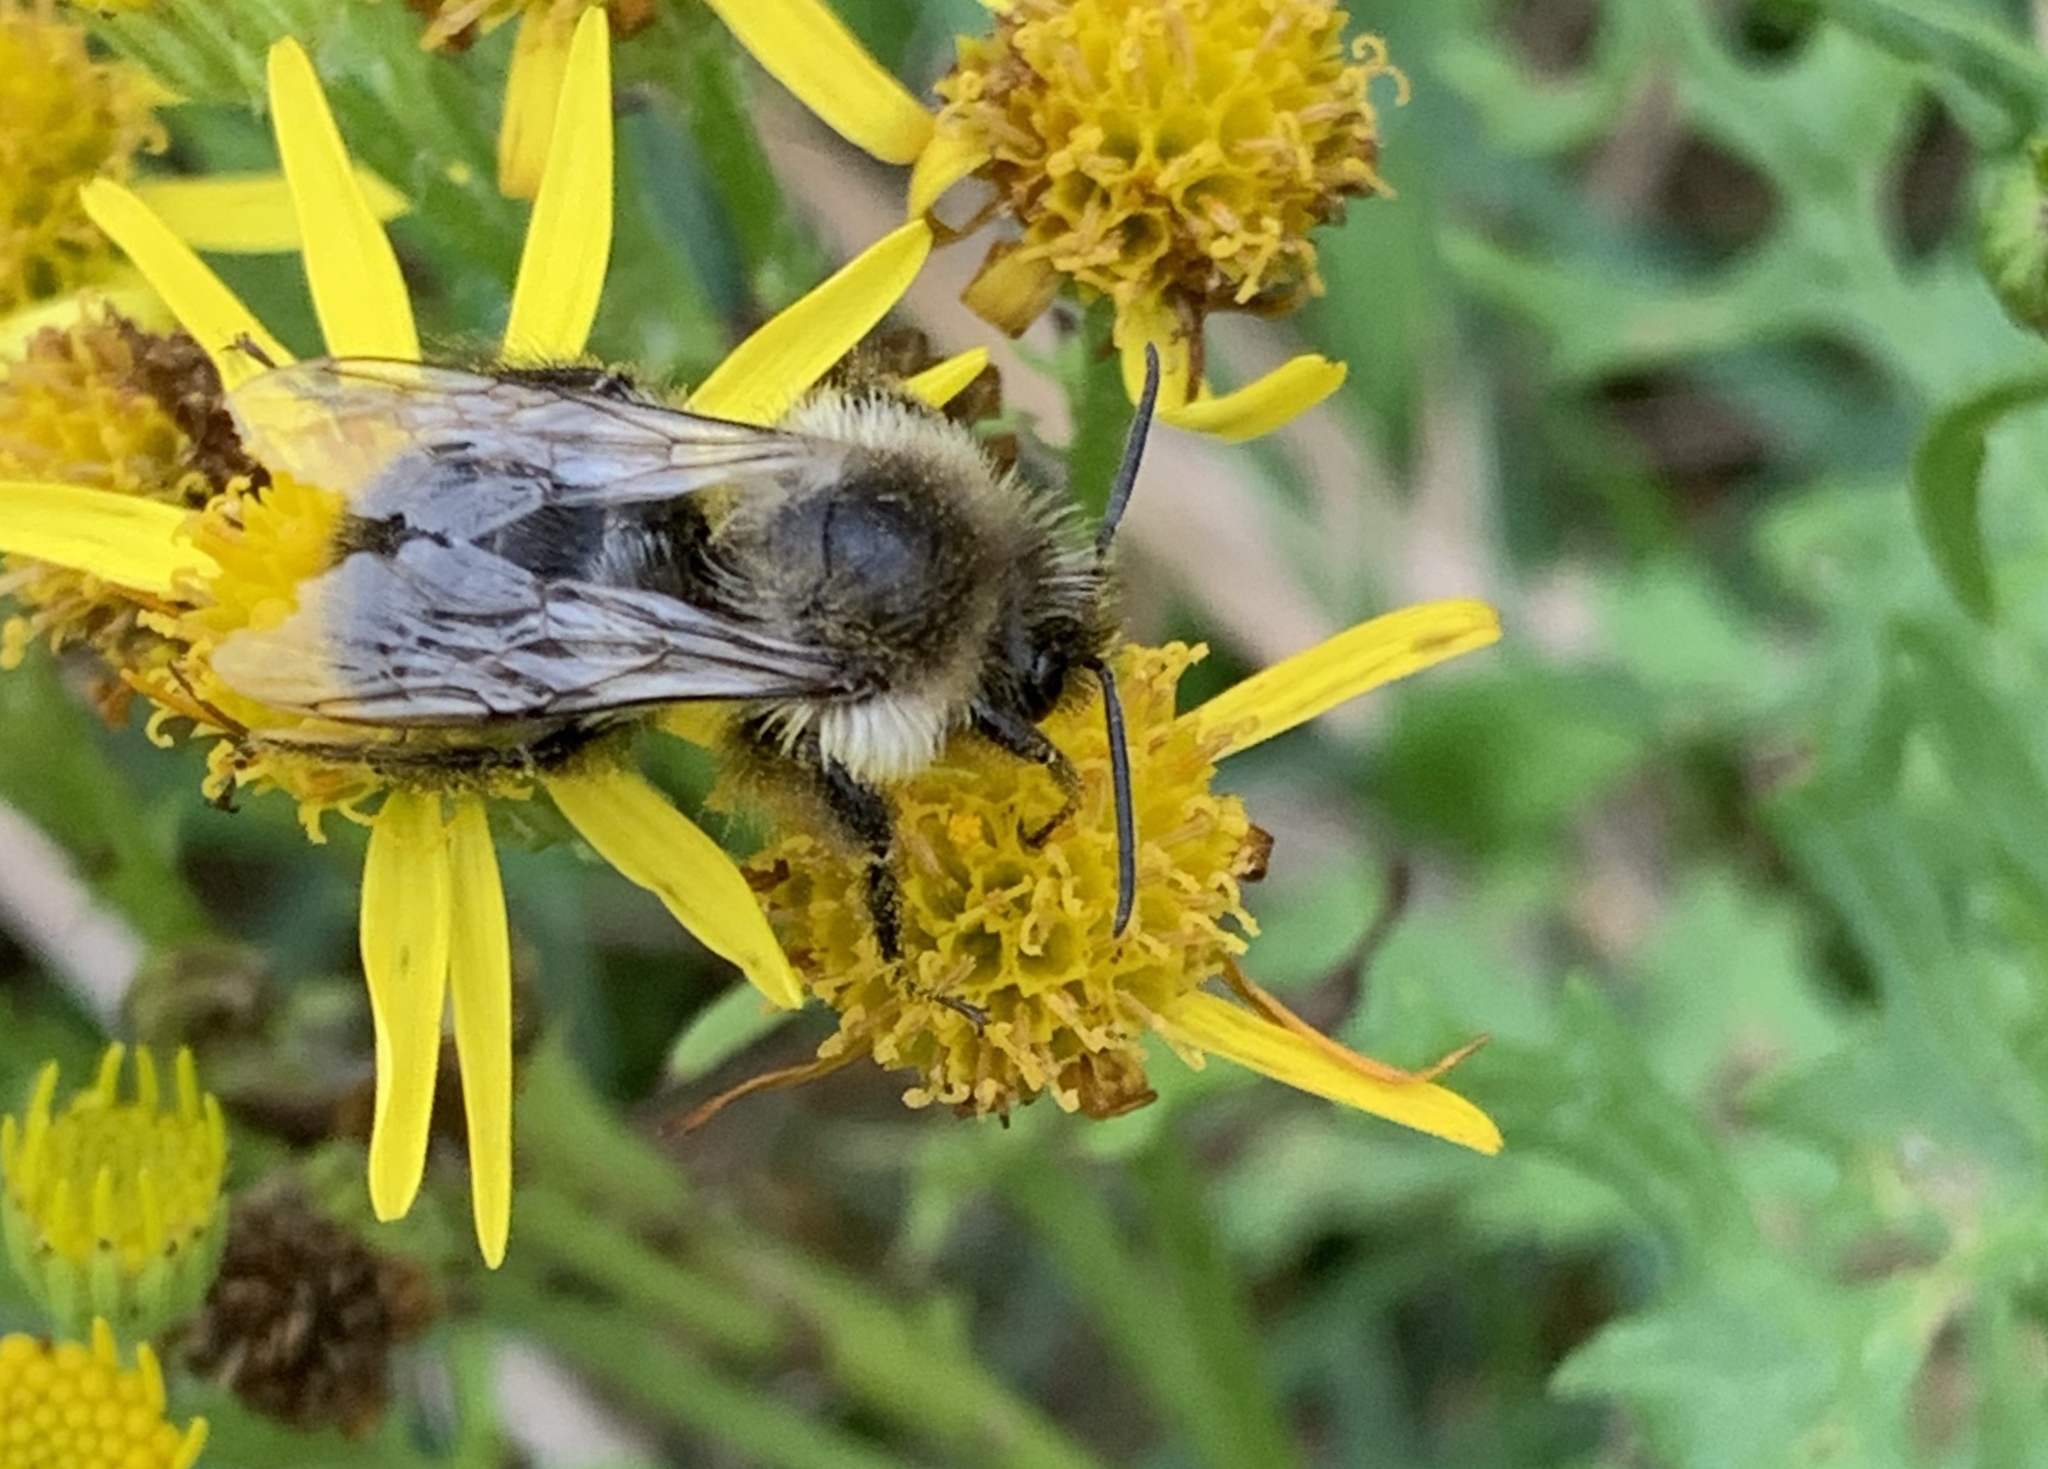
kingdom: Animalia
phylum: Arthropoda
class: Insecta
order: Hymenoptera
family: Apidae
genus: Bombus
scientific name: Bombus impatiens
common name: Common eastern bumble bee
